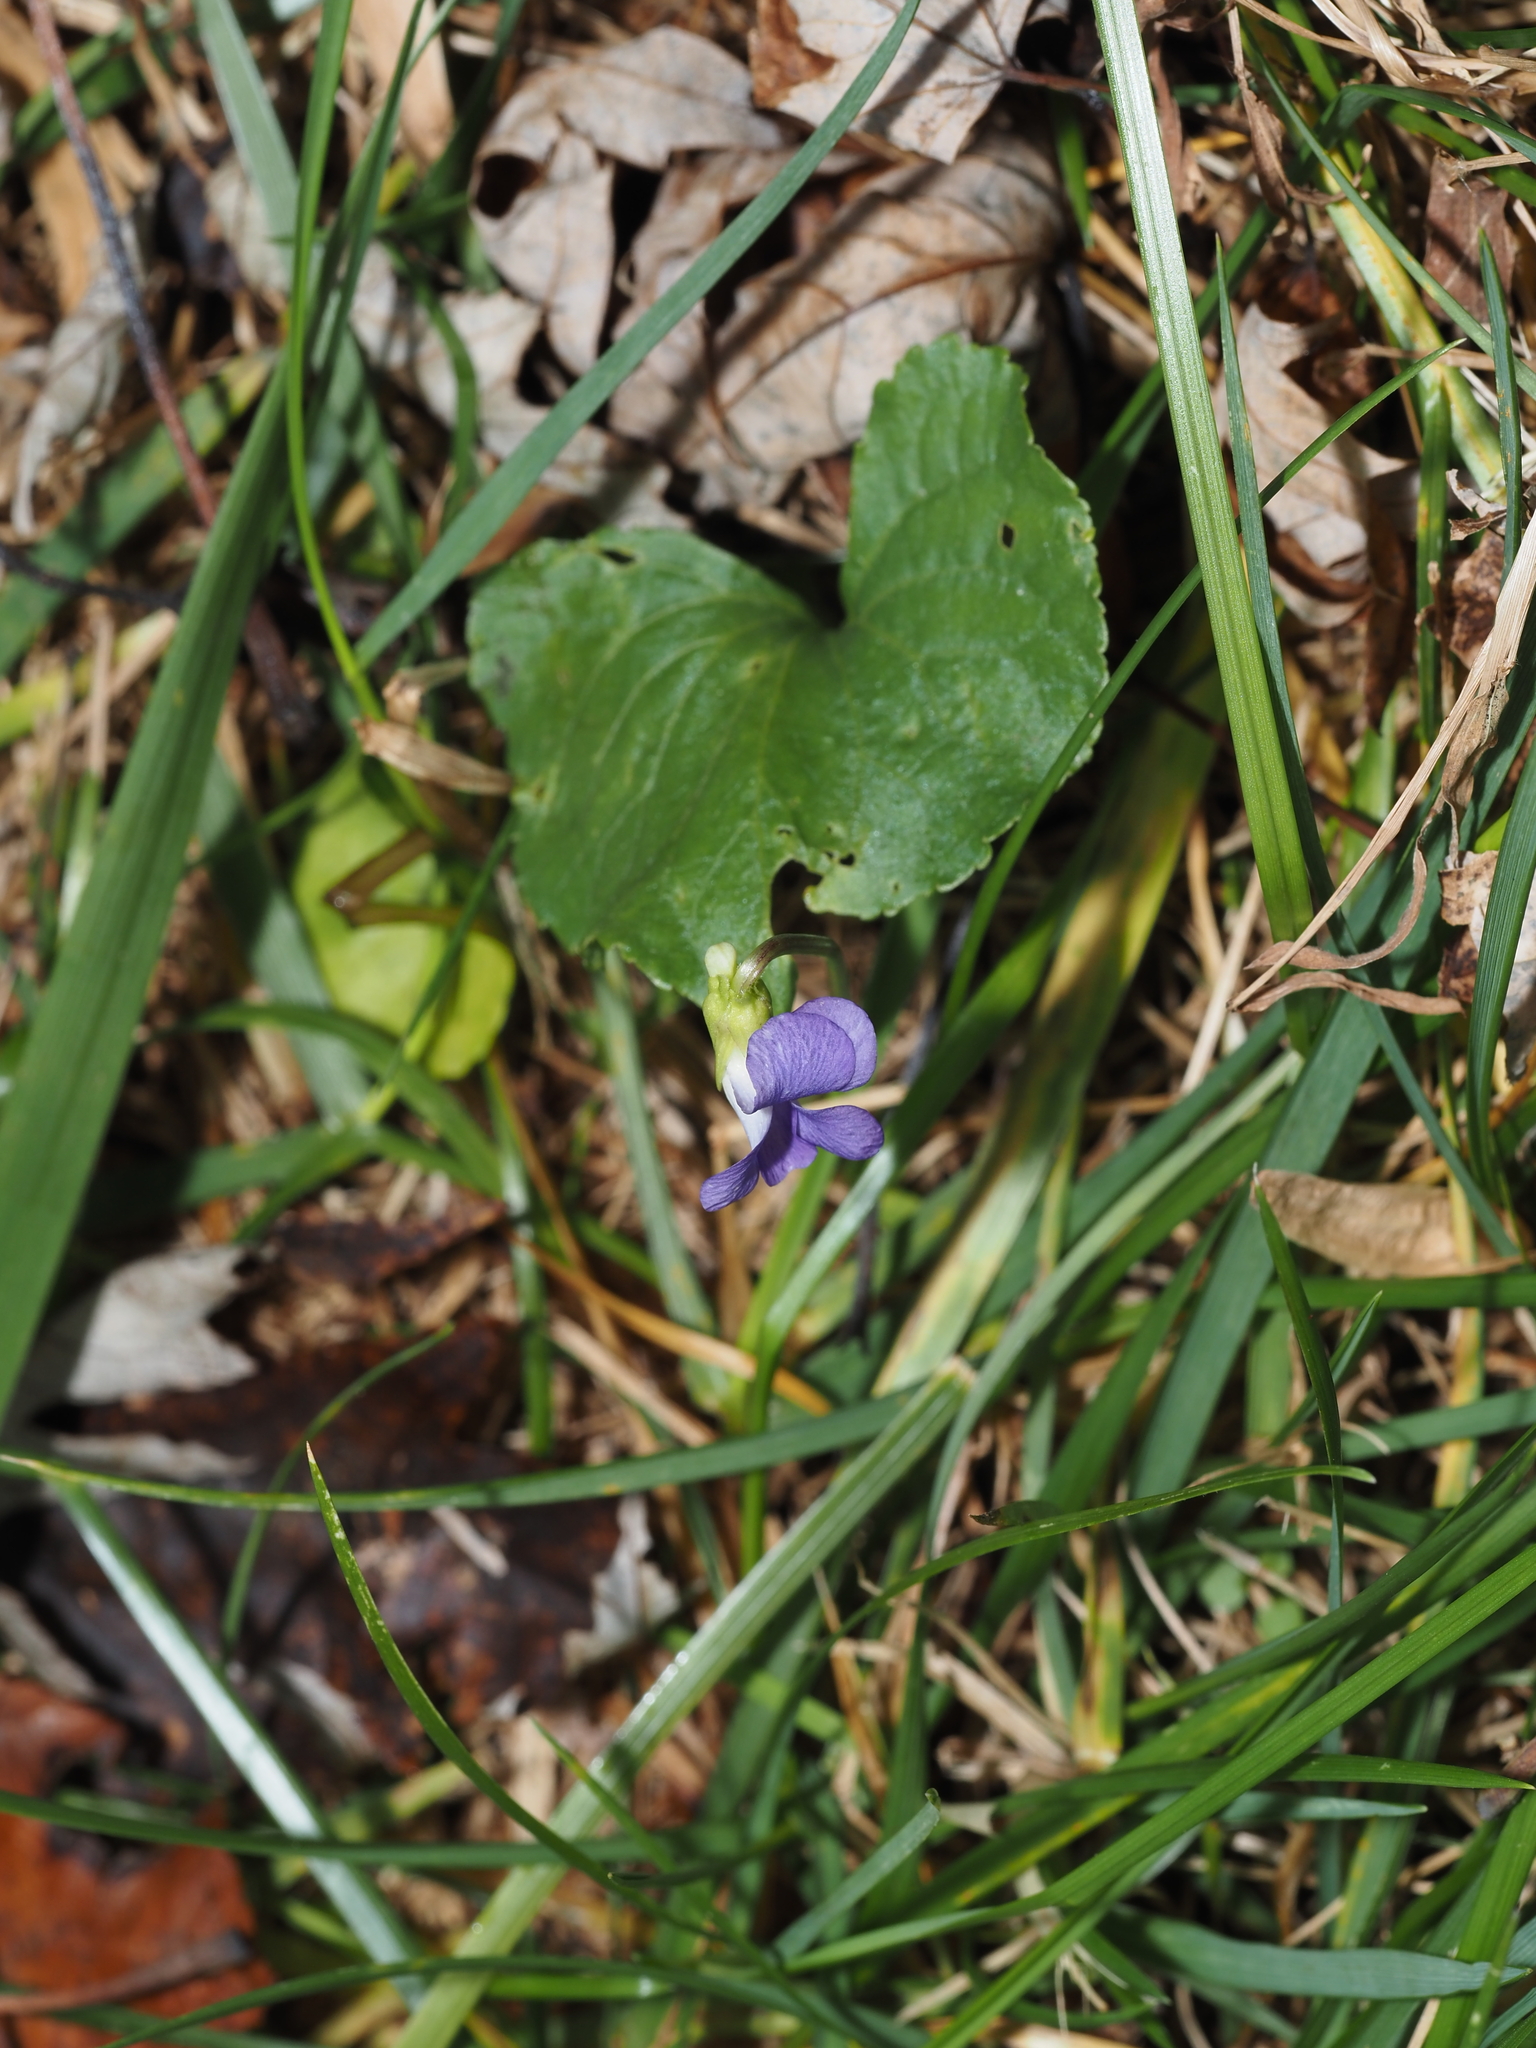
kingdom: Plantae
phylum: Tracheophyta
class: Magnoliopsida
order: Malpighiales
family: Violaceae
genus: Viola
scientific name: Viola sororia
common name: Dooryard violet
